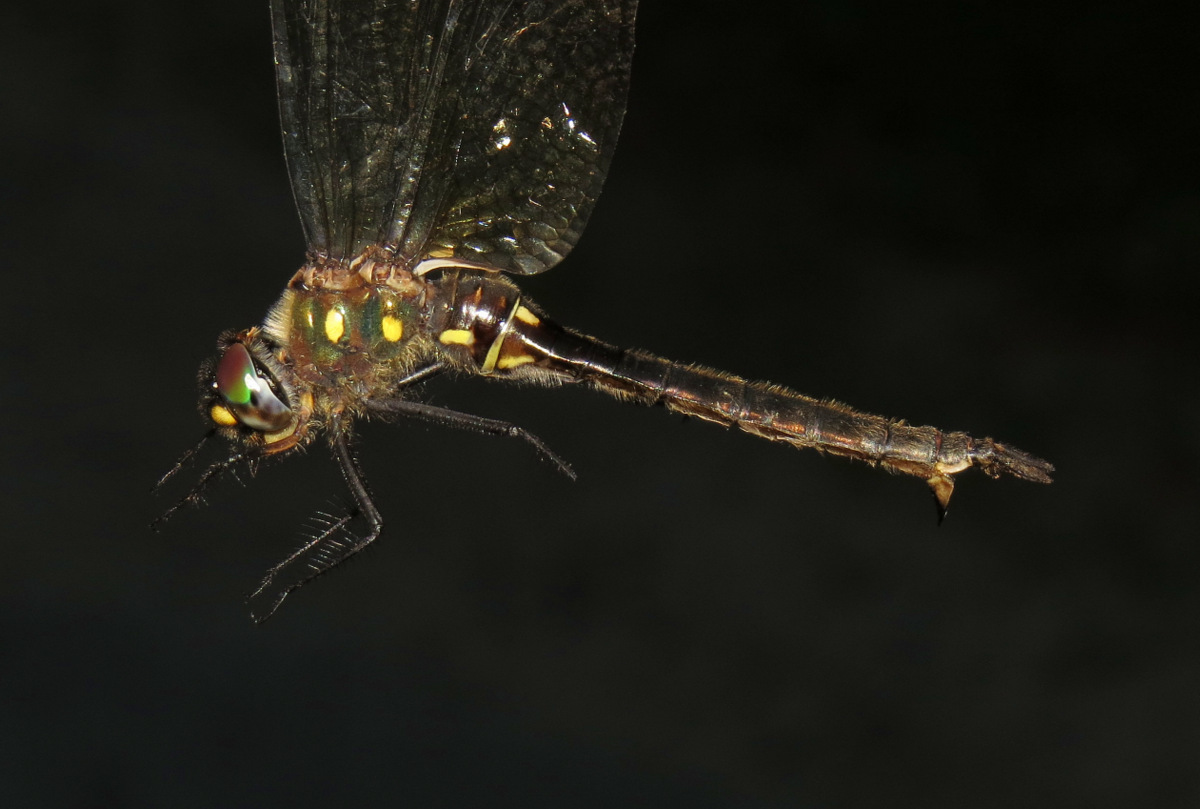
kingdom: Animalia
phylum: Arthropoda
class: Insecta
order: Odonata
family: Corduliidae
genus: Somatochlora
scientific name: Somatochlora minor
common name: Ocellated emerald
